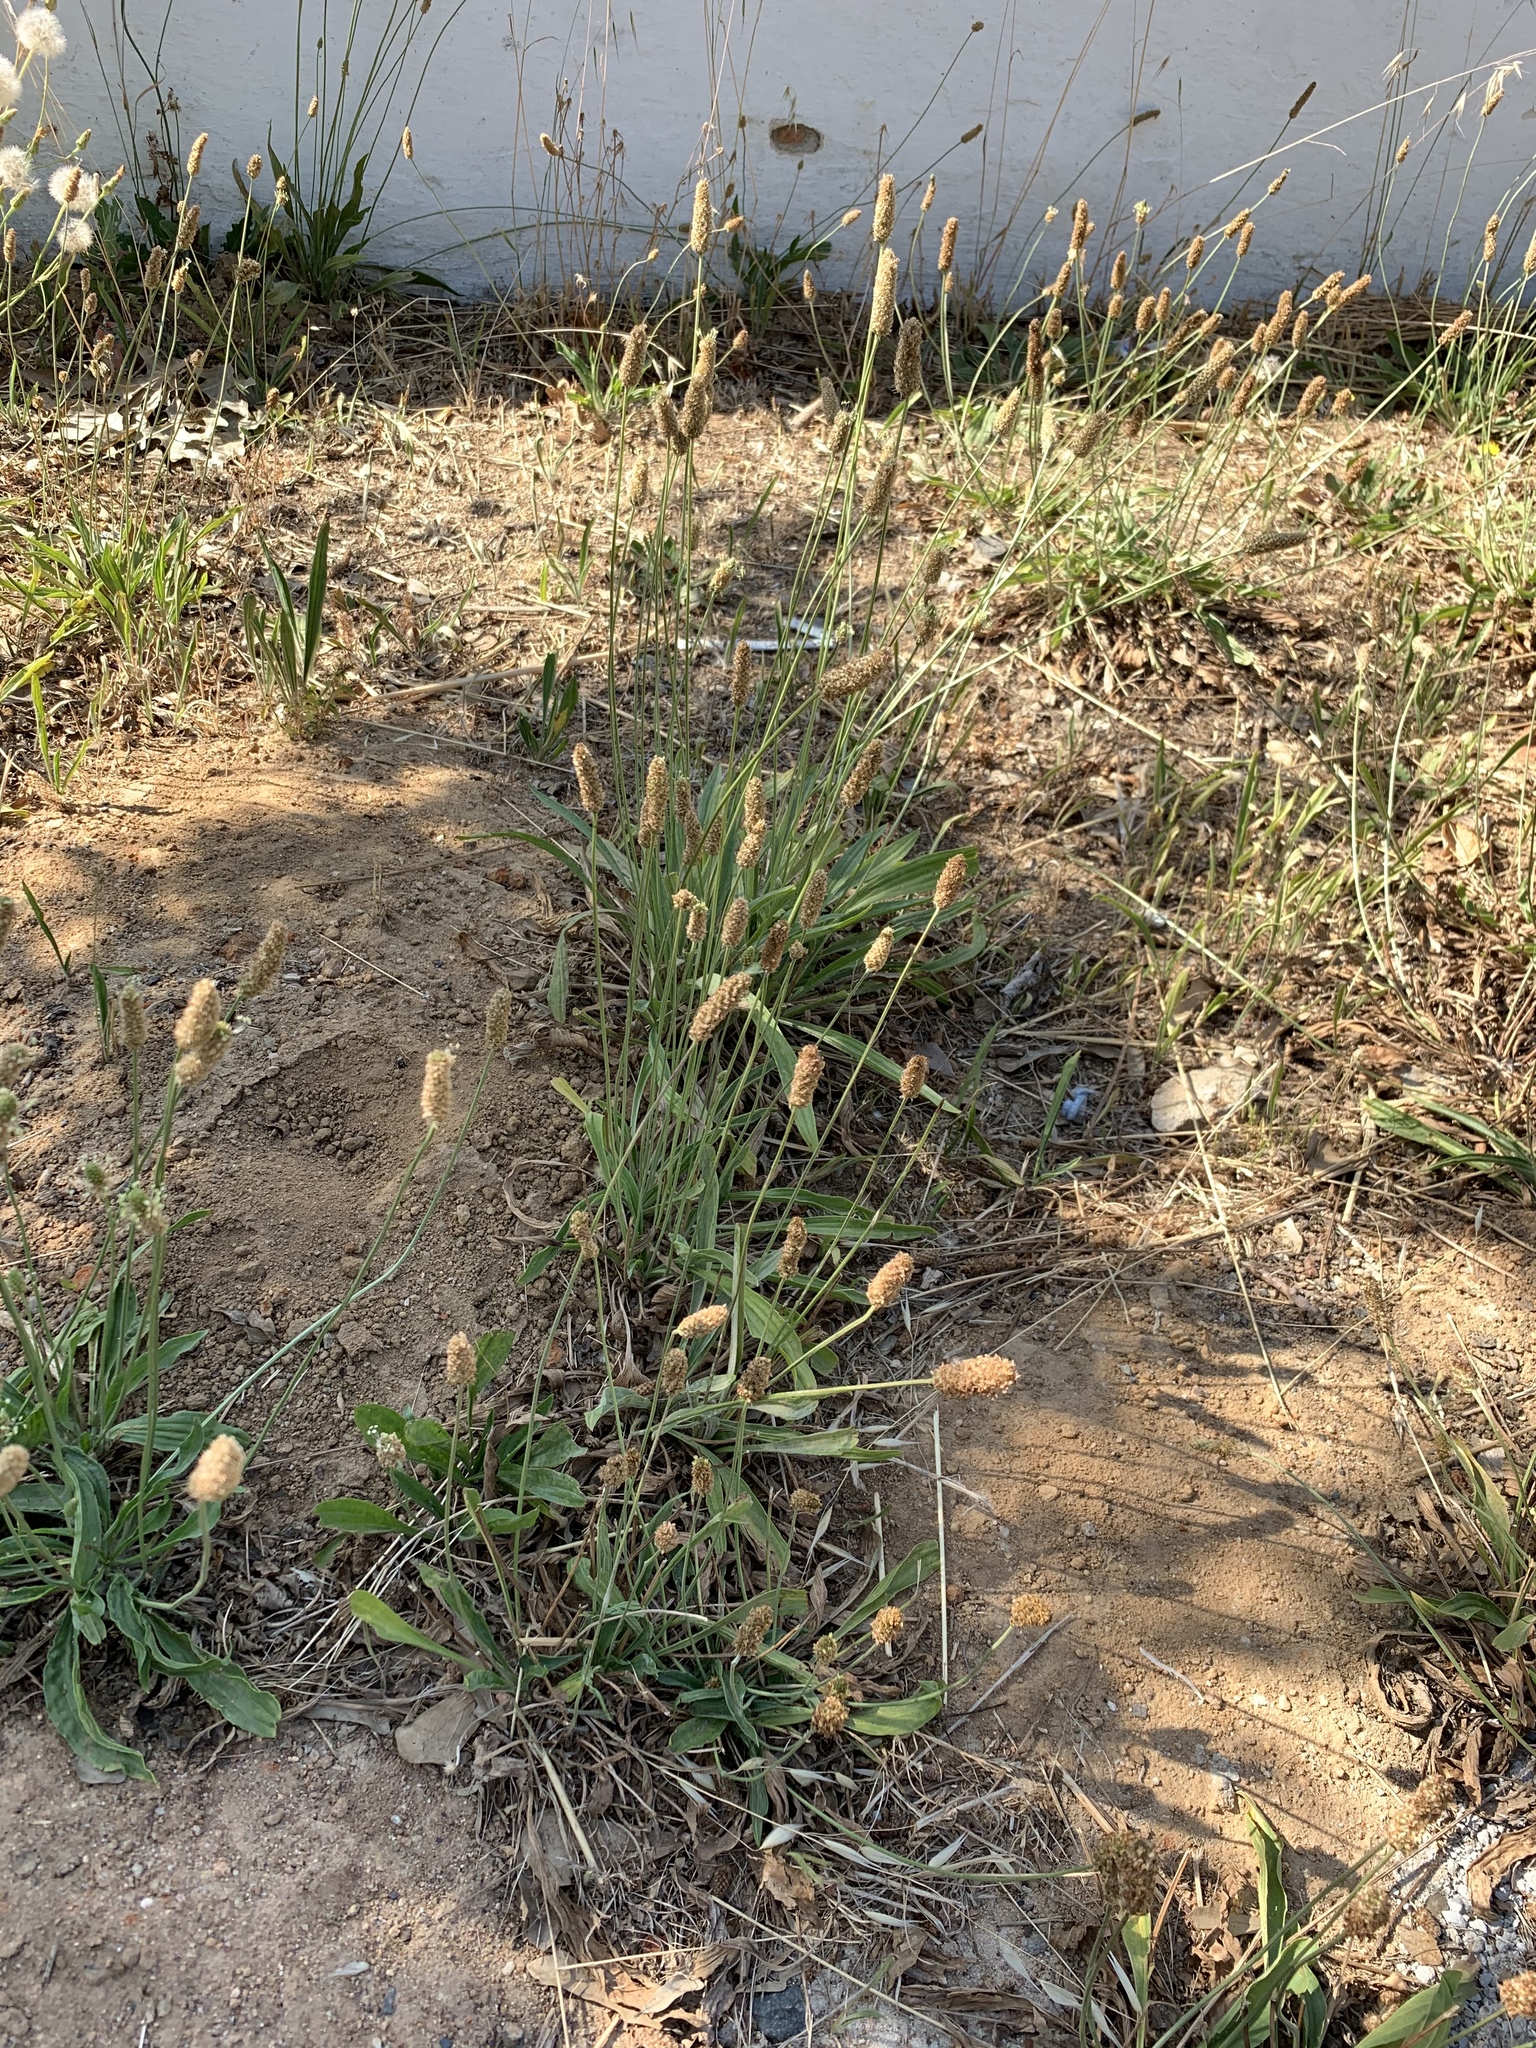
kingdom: Plantae
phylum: Tracheophyta
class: Magnoliopsida
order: Lamiales
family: Plantaginaceae
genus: Plantago
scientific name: Plantago lanceolata
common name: Ribwort plantain
